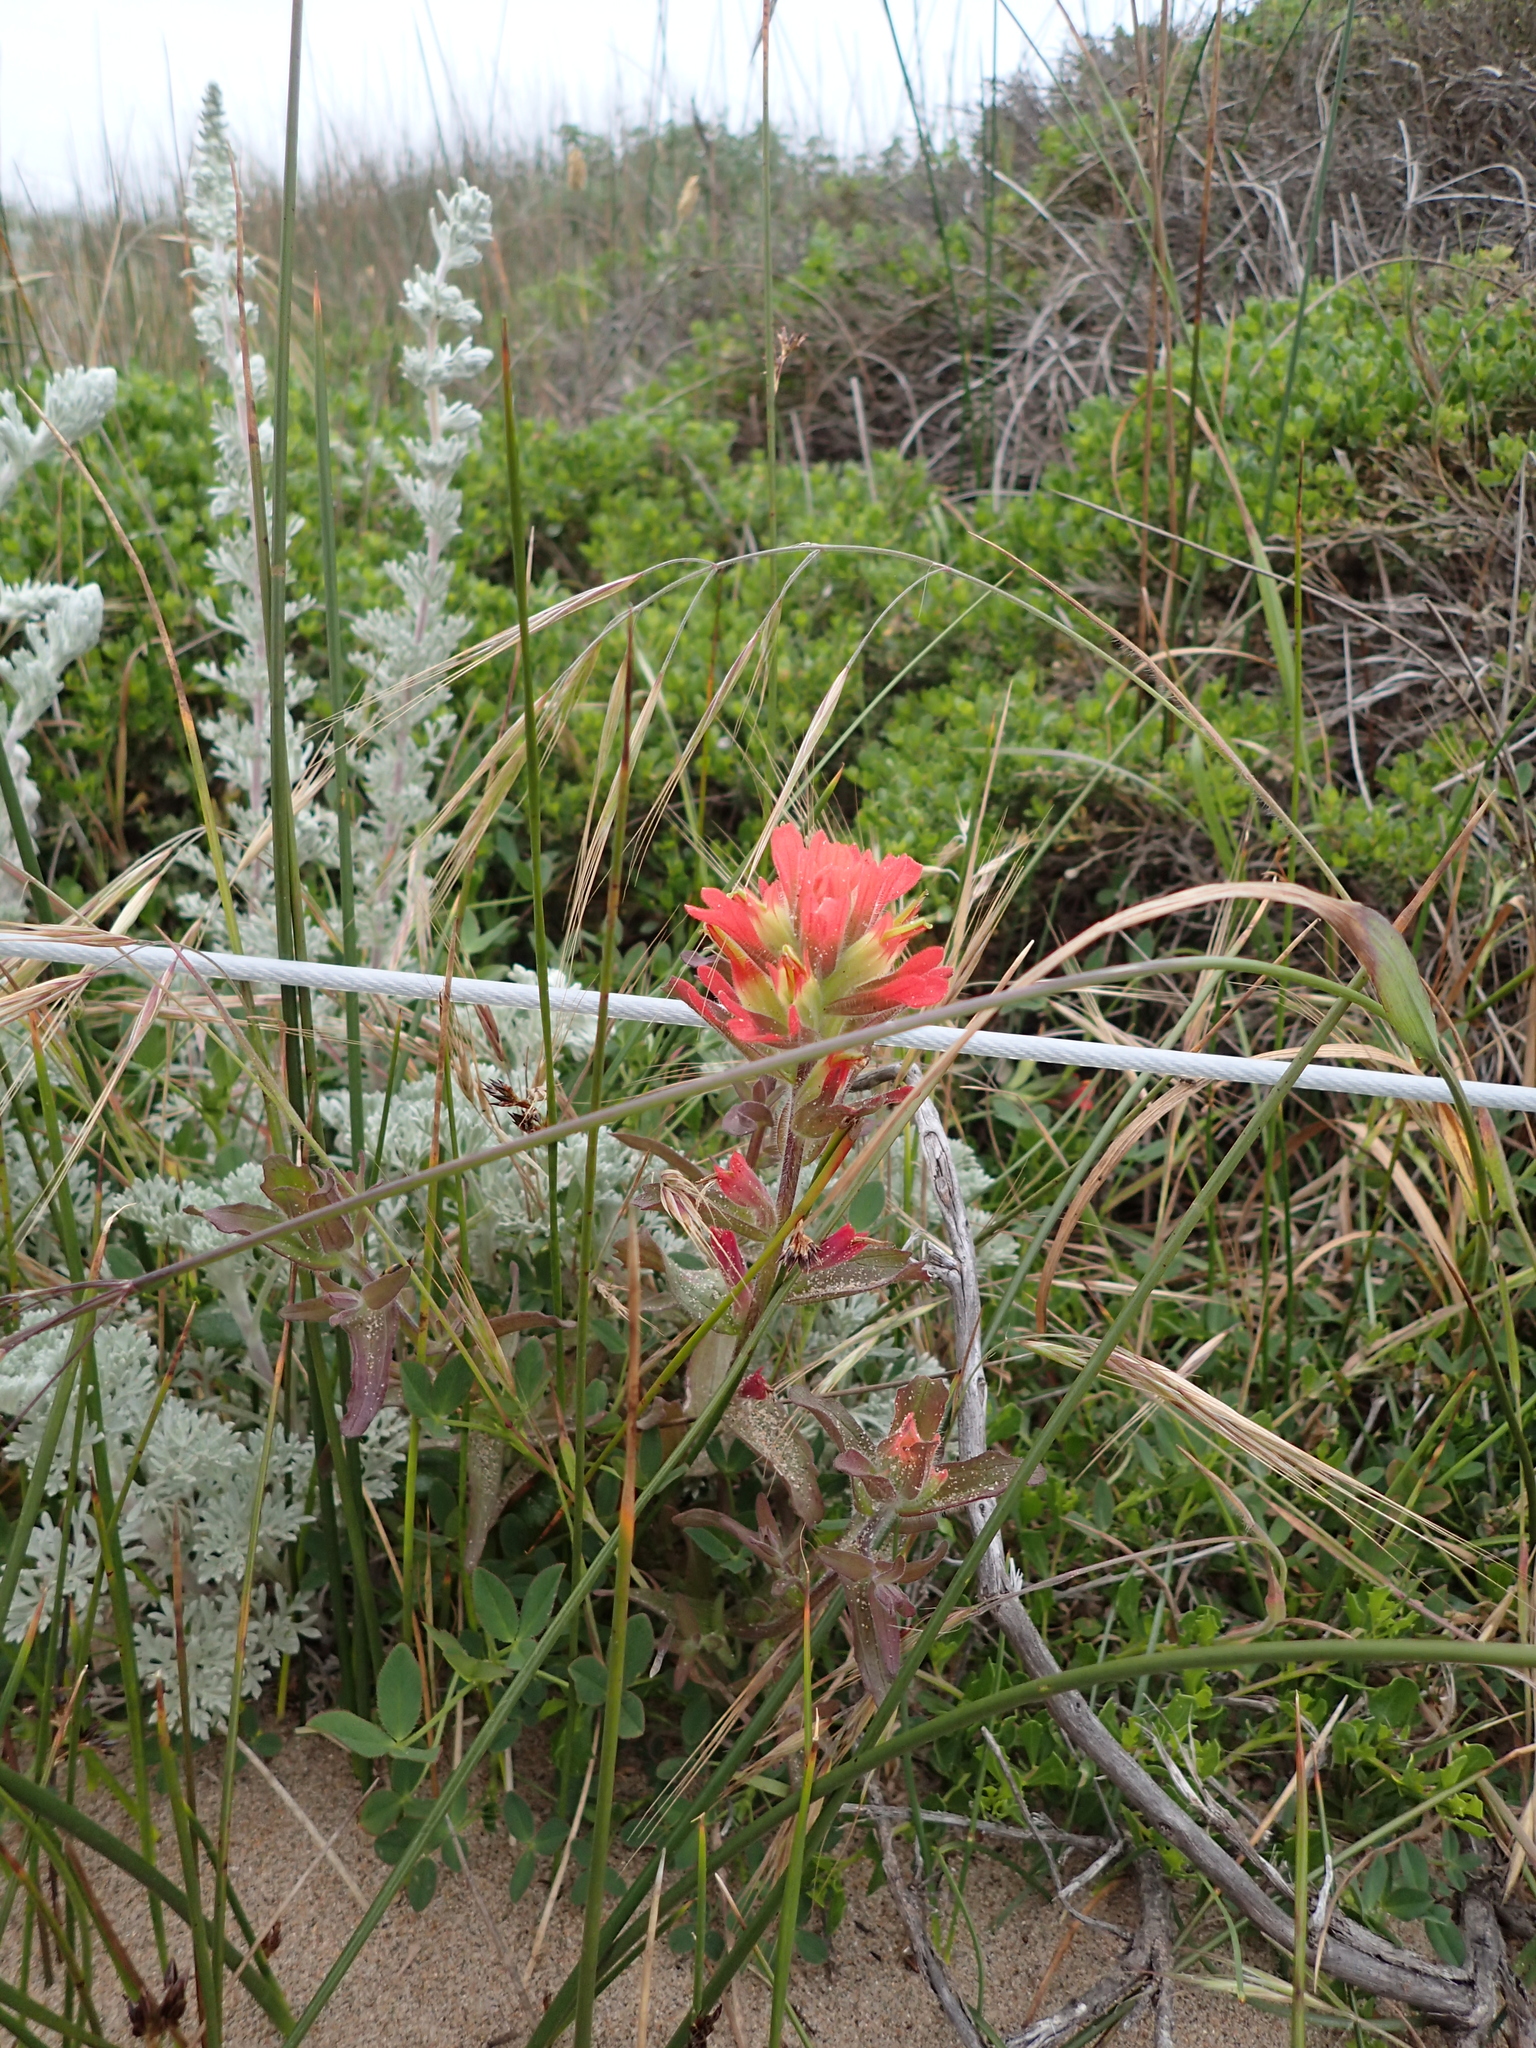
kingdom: Plantae
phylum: Tracheophyta
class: Magnoliopsida
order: Lamiales
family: Orobanchaceae
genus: Castilleja
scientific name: Castilleja affinis
